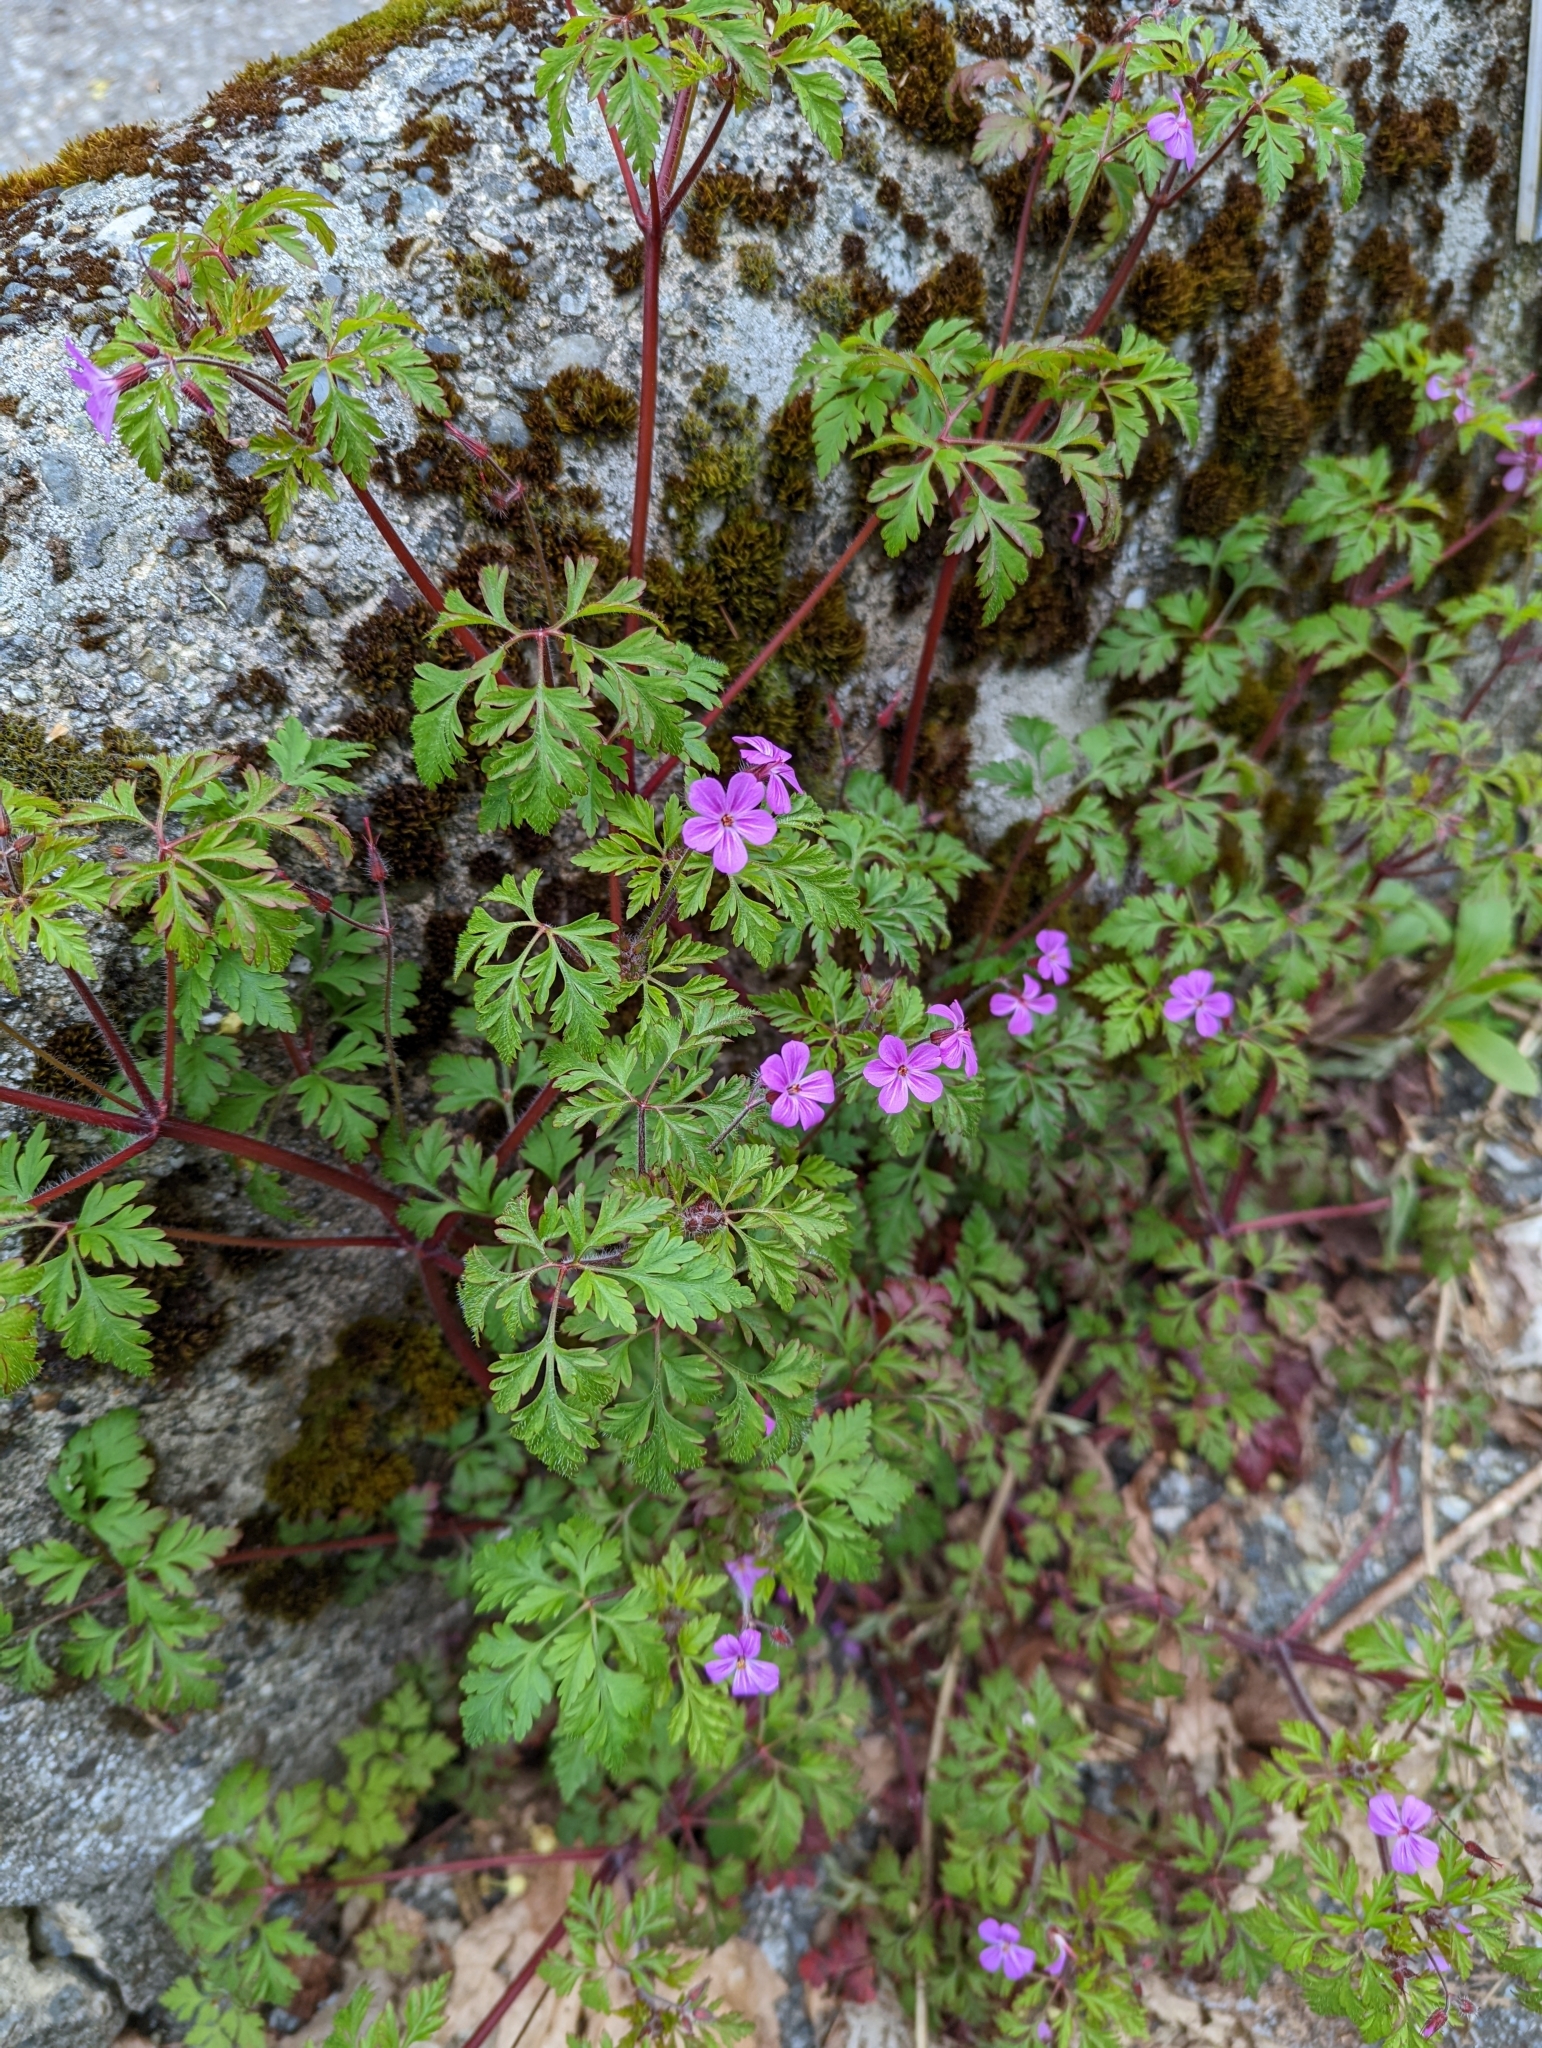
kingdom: Plantae
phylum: Tracheophyta
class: Magnoliopsida
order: Geraniales
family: Geraniaceae
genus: Geranium
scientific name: Geranium robertianum
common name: Herb-robert
